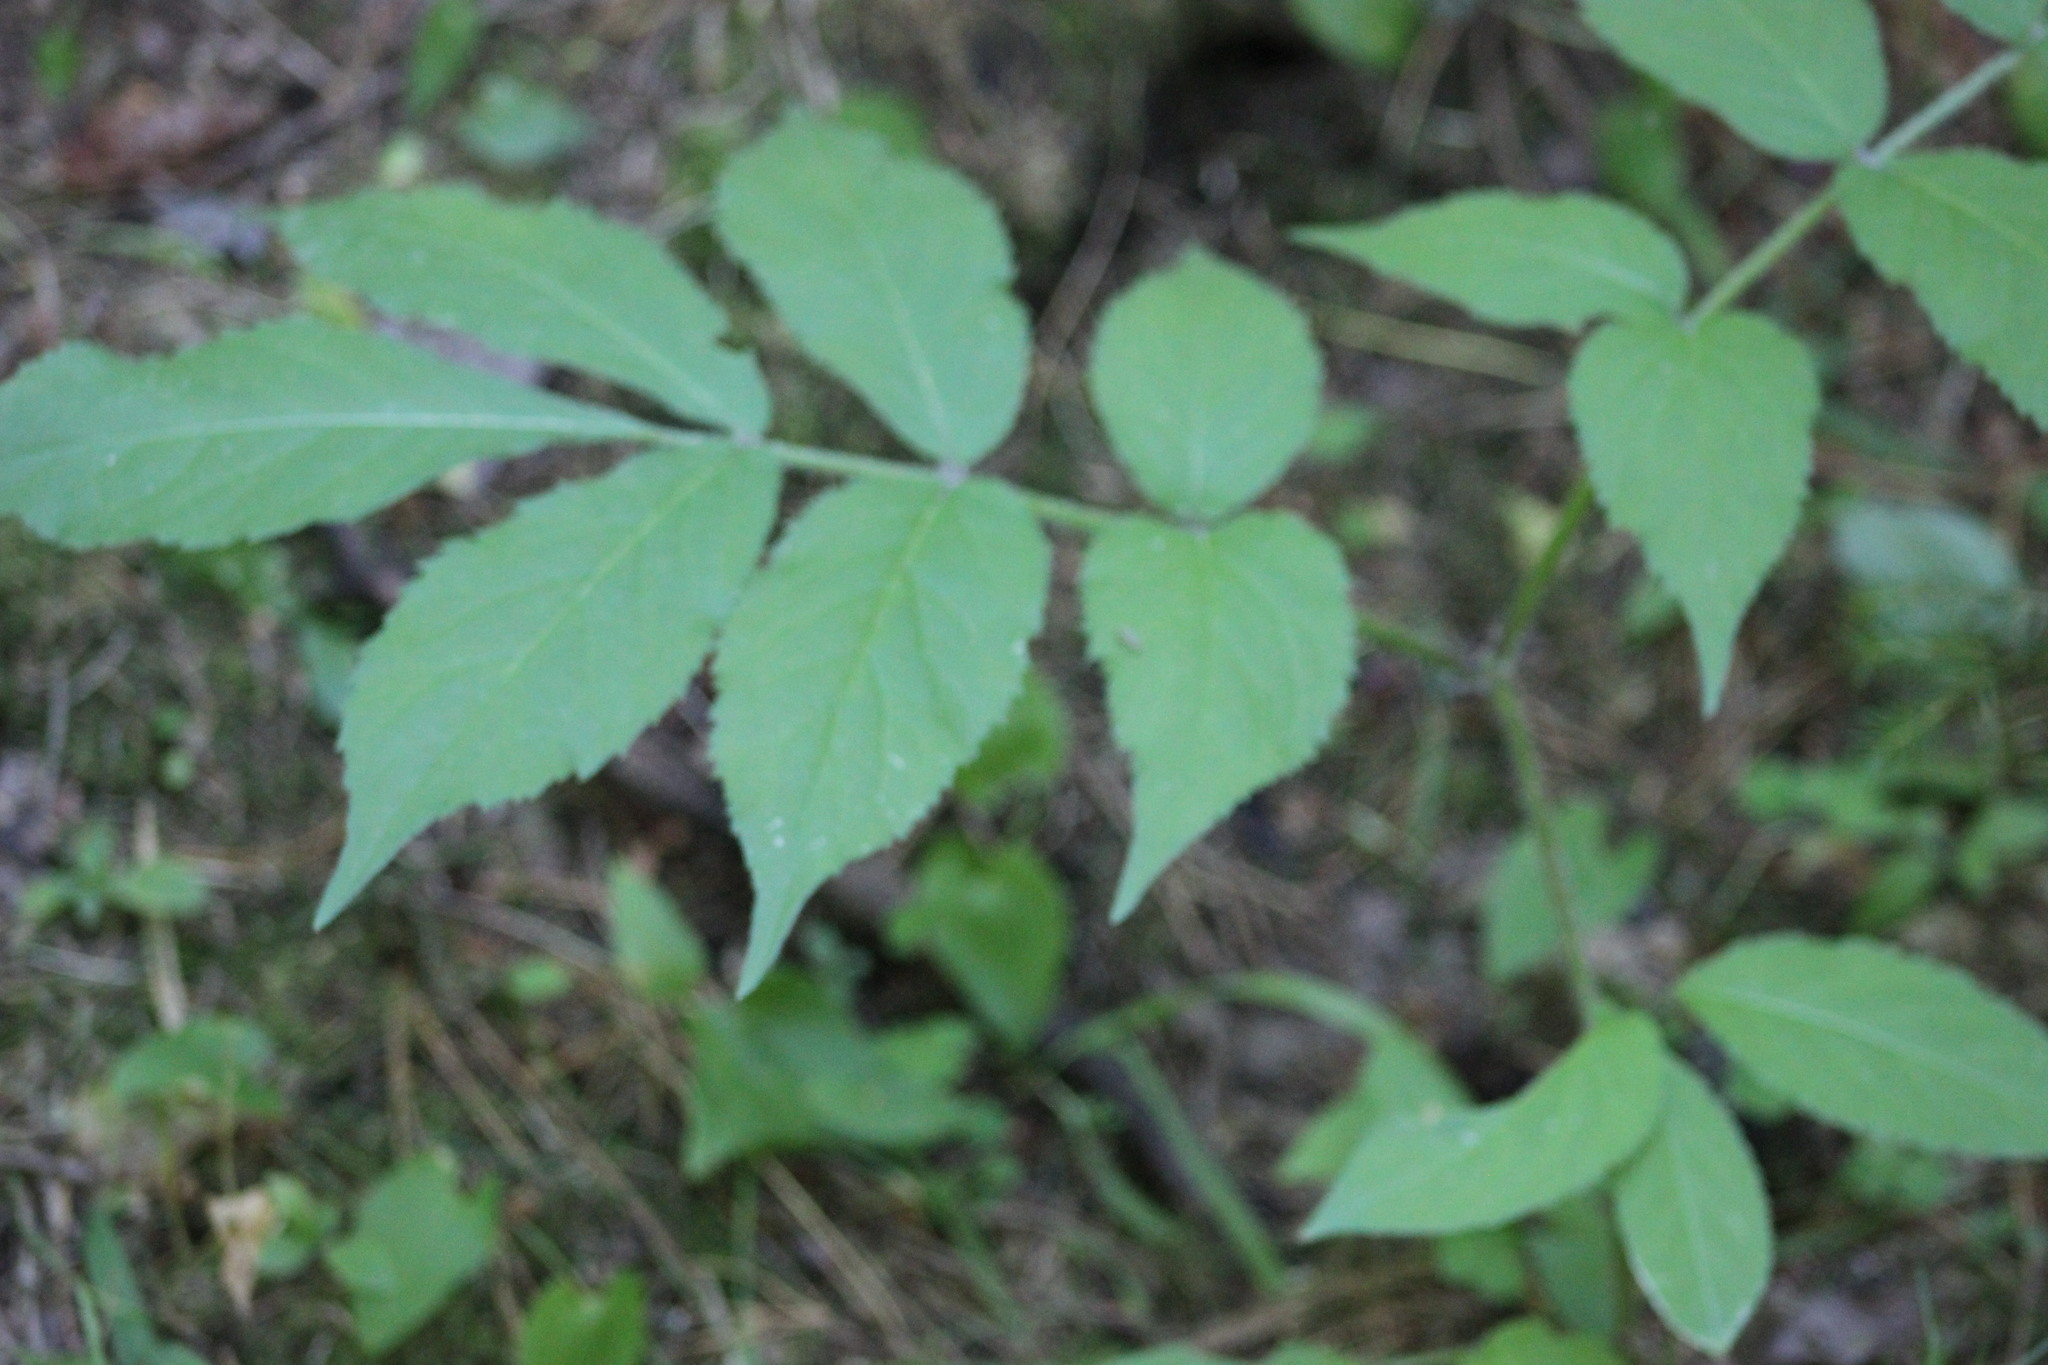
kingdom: Plantae
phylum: Tracheophyta
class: Magnoliopsida
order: Dipsacales
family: Viburnaceae
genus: Sambucus
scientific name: Sambucus sibirica
